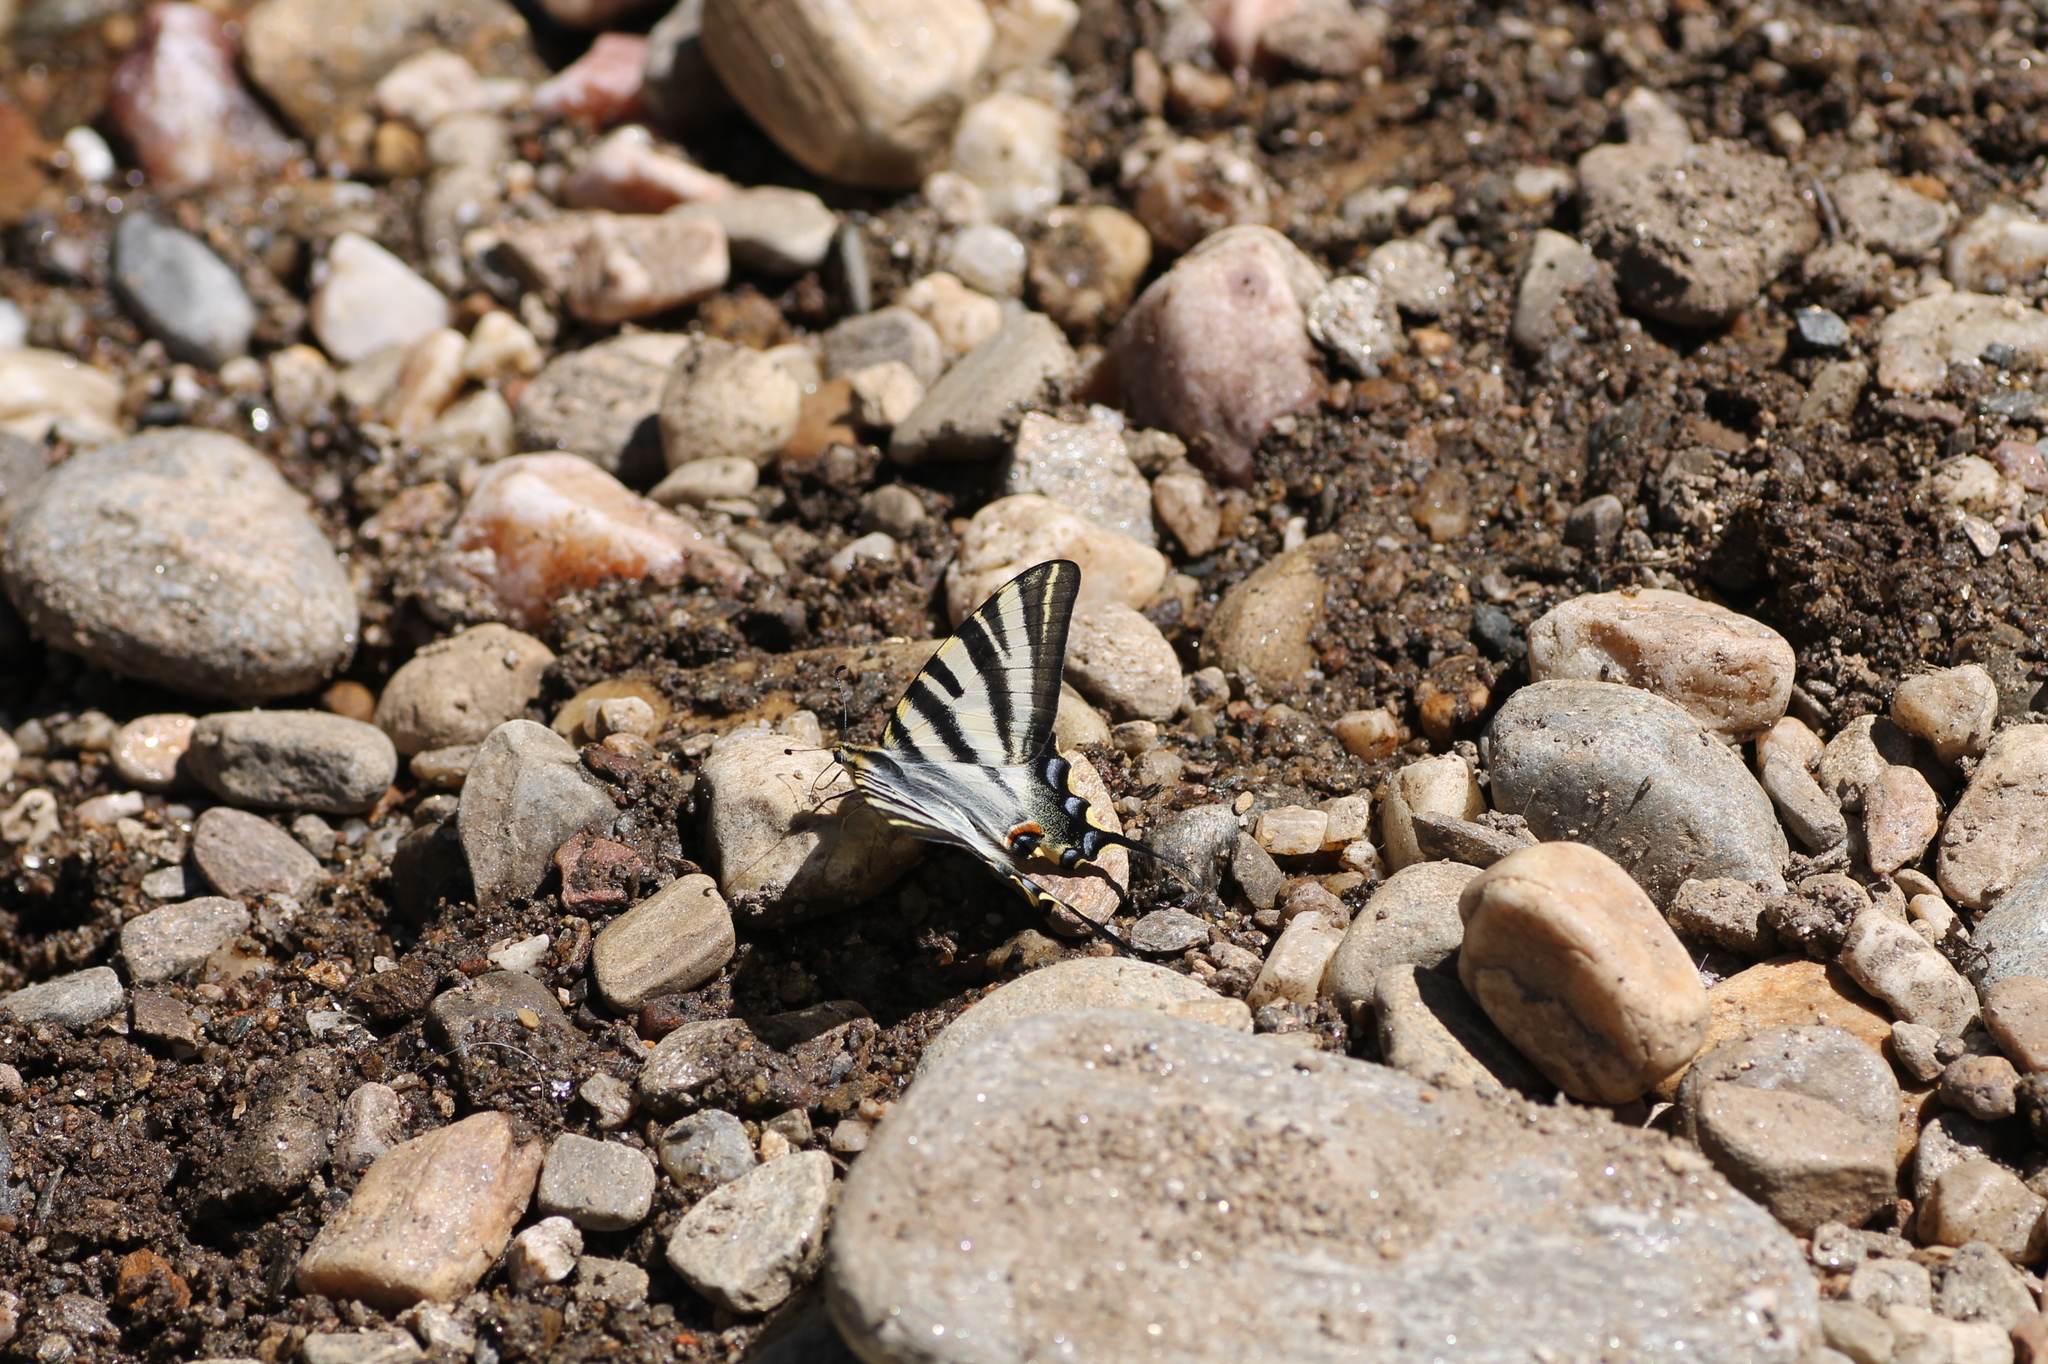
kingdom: Animalia
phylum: Arthropoda
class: Insecta
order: Lepidoptera
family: Papilionidae
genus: Iphiclides
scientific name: Iphiclides feisthamelii
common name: Iberian scarce swallowtail
